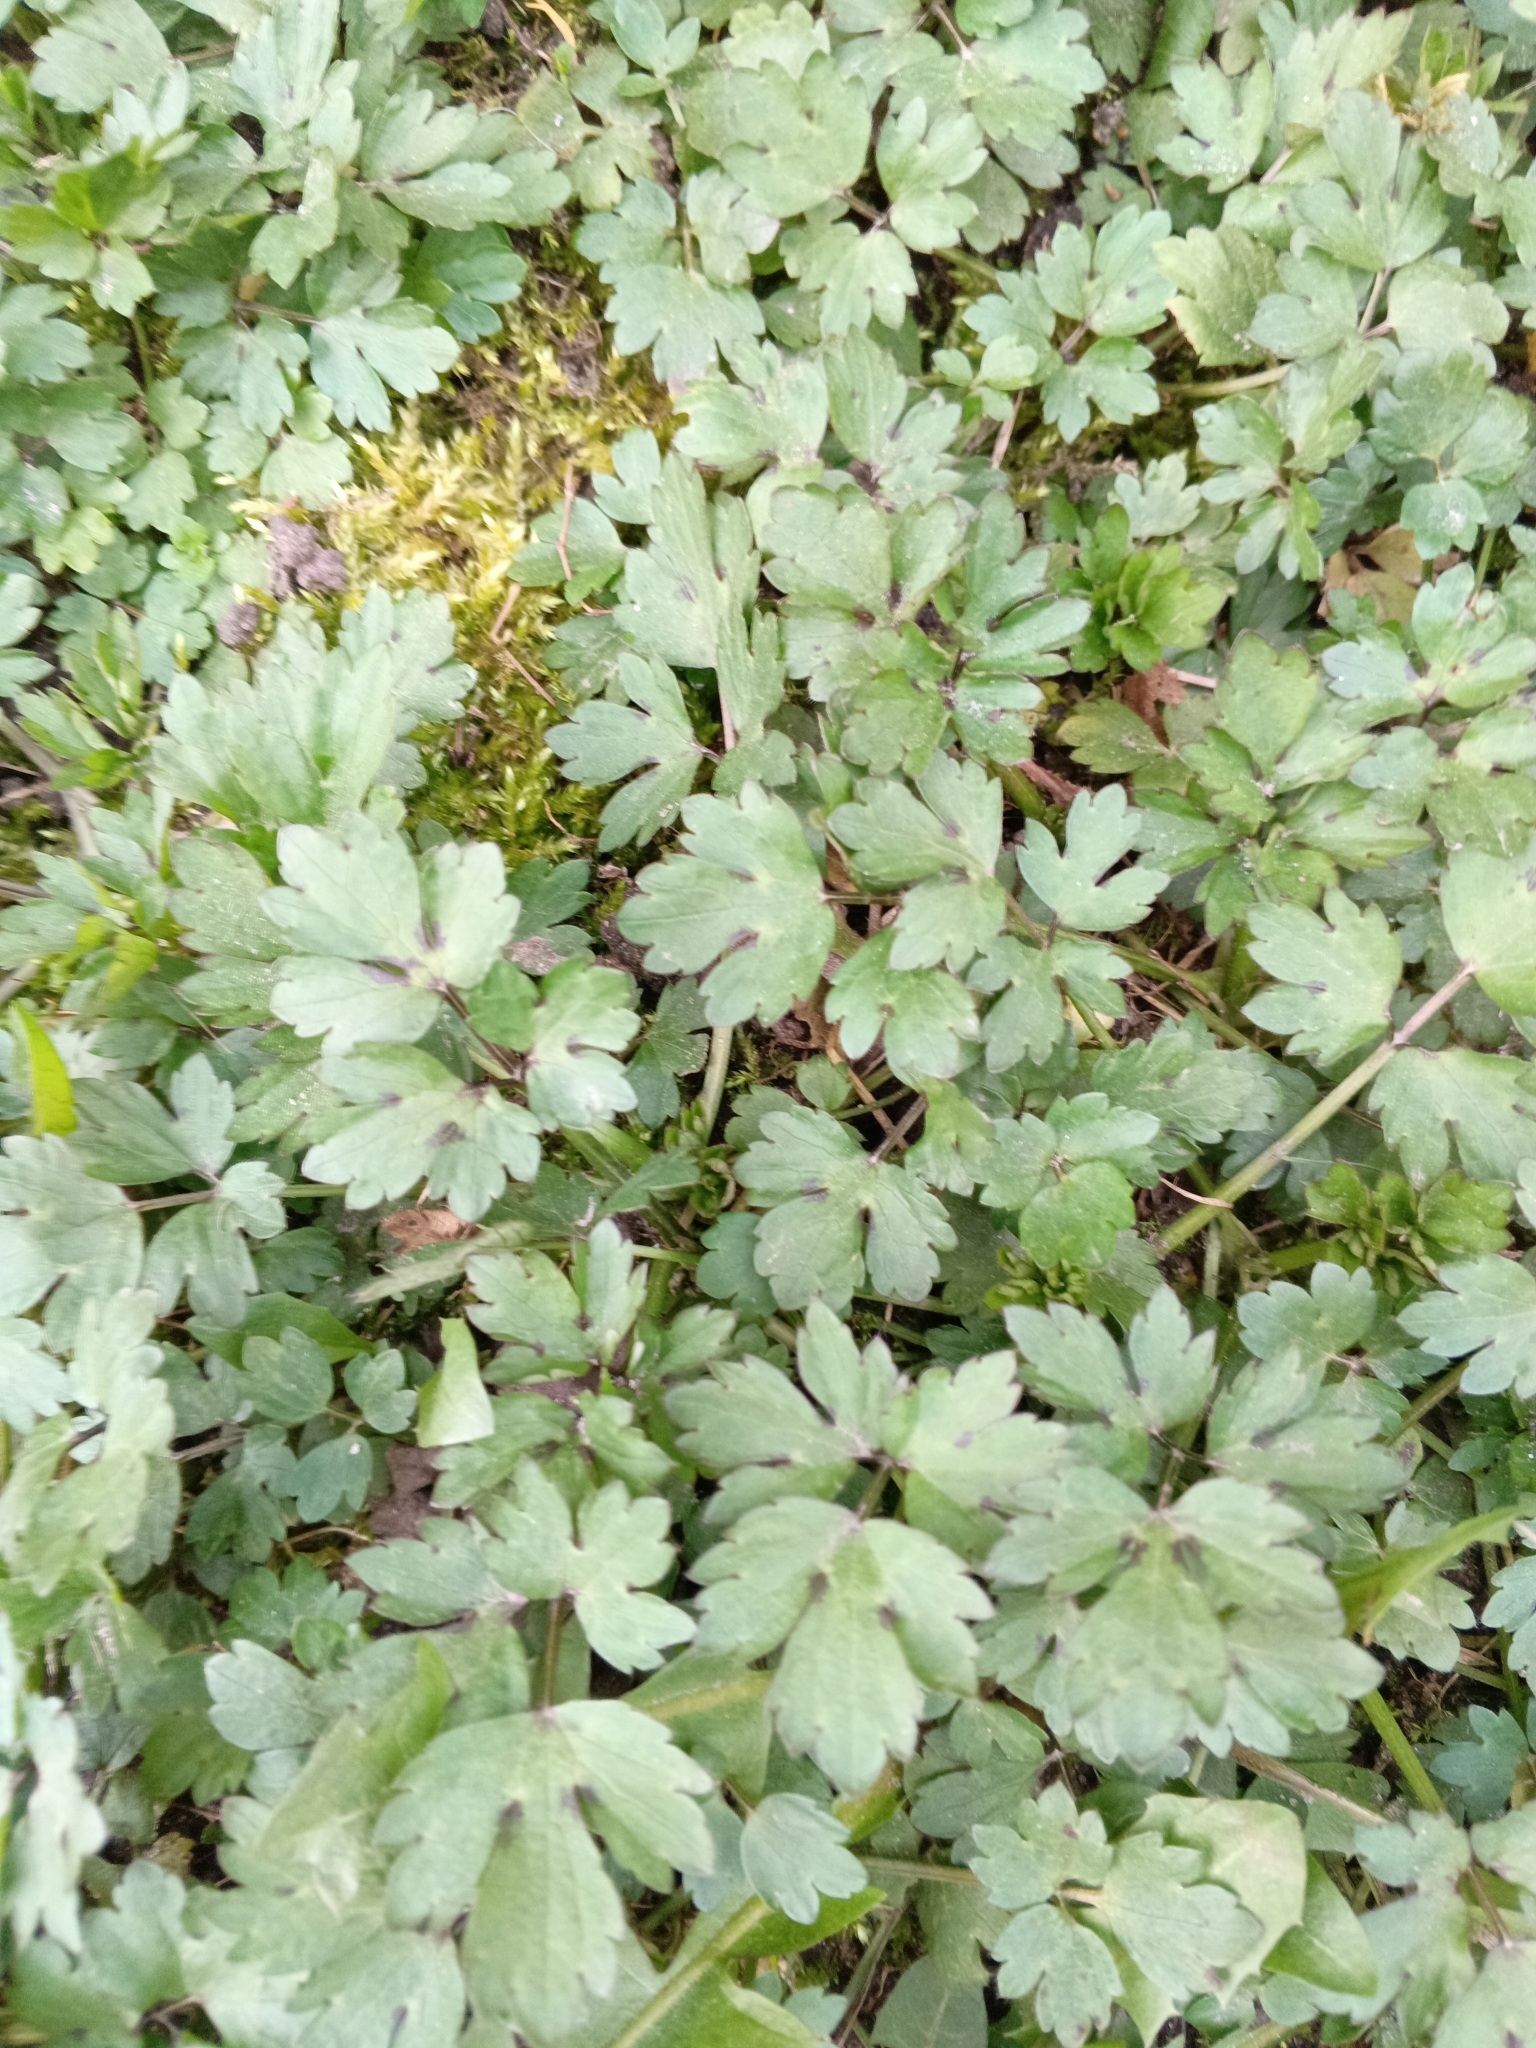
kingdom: Plantae
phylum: Tracheophyta
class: Magnoliopsida
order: Ranunculales
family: Ranunculaceae
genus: Ranunculus
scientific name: Ranunculus repens
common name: Creeping buttercup
